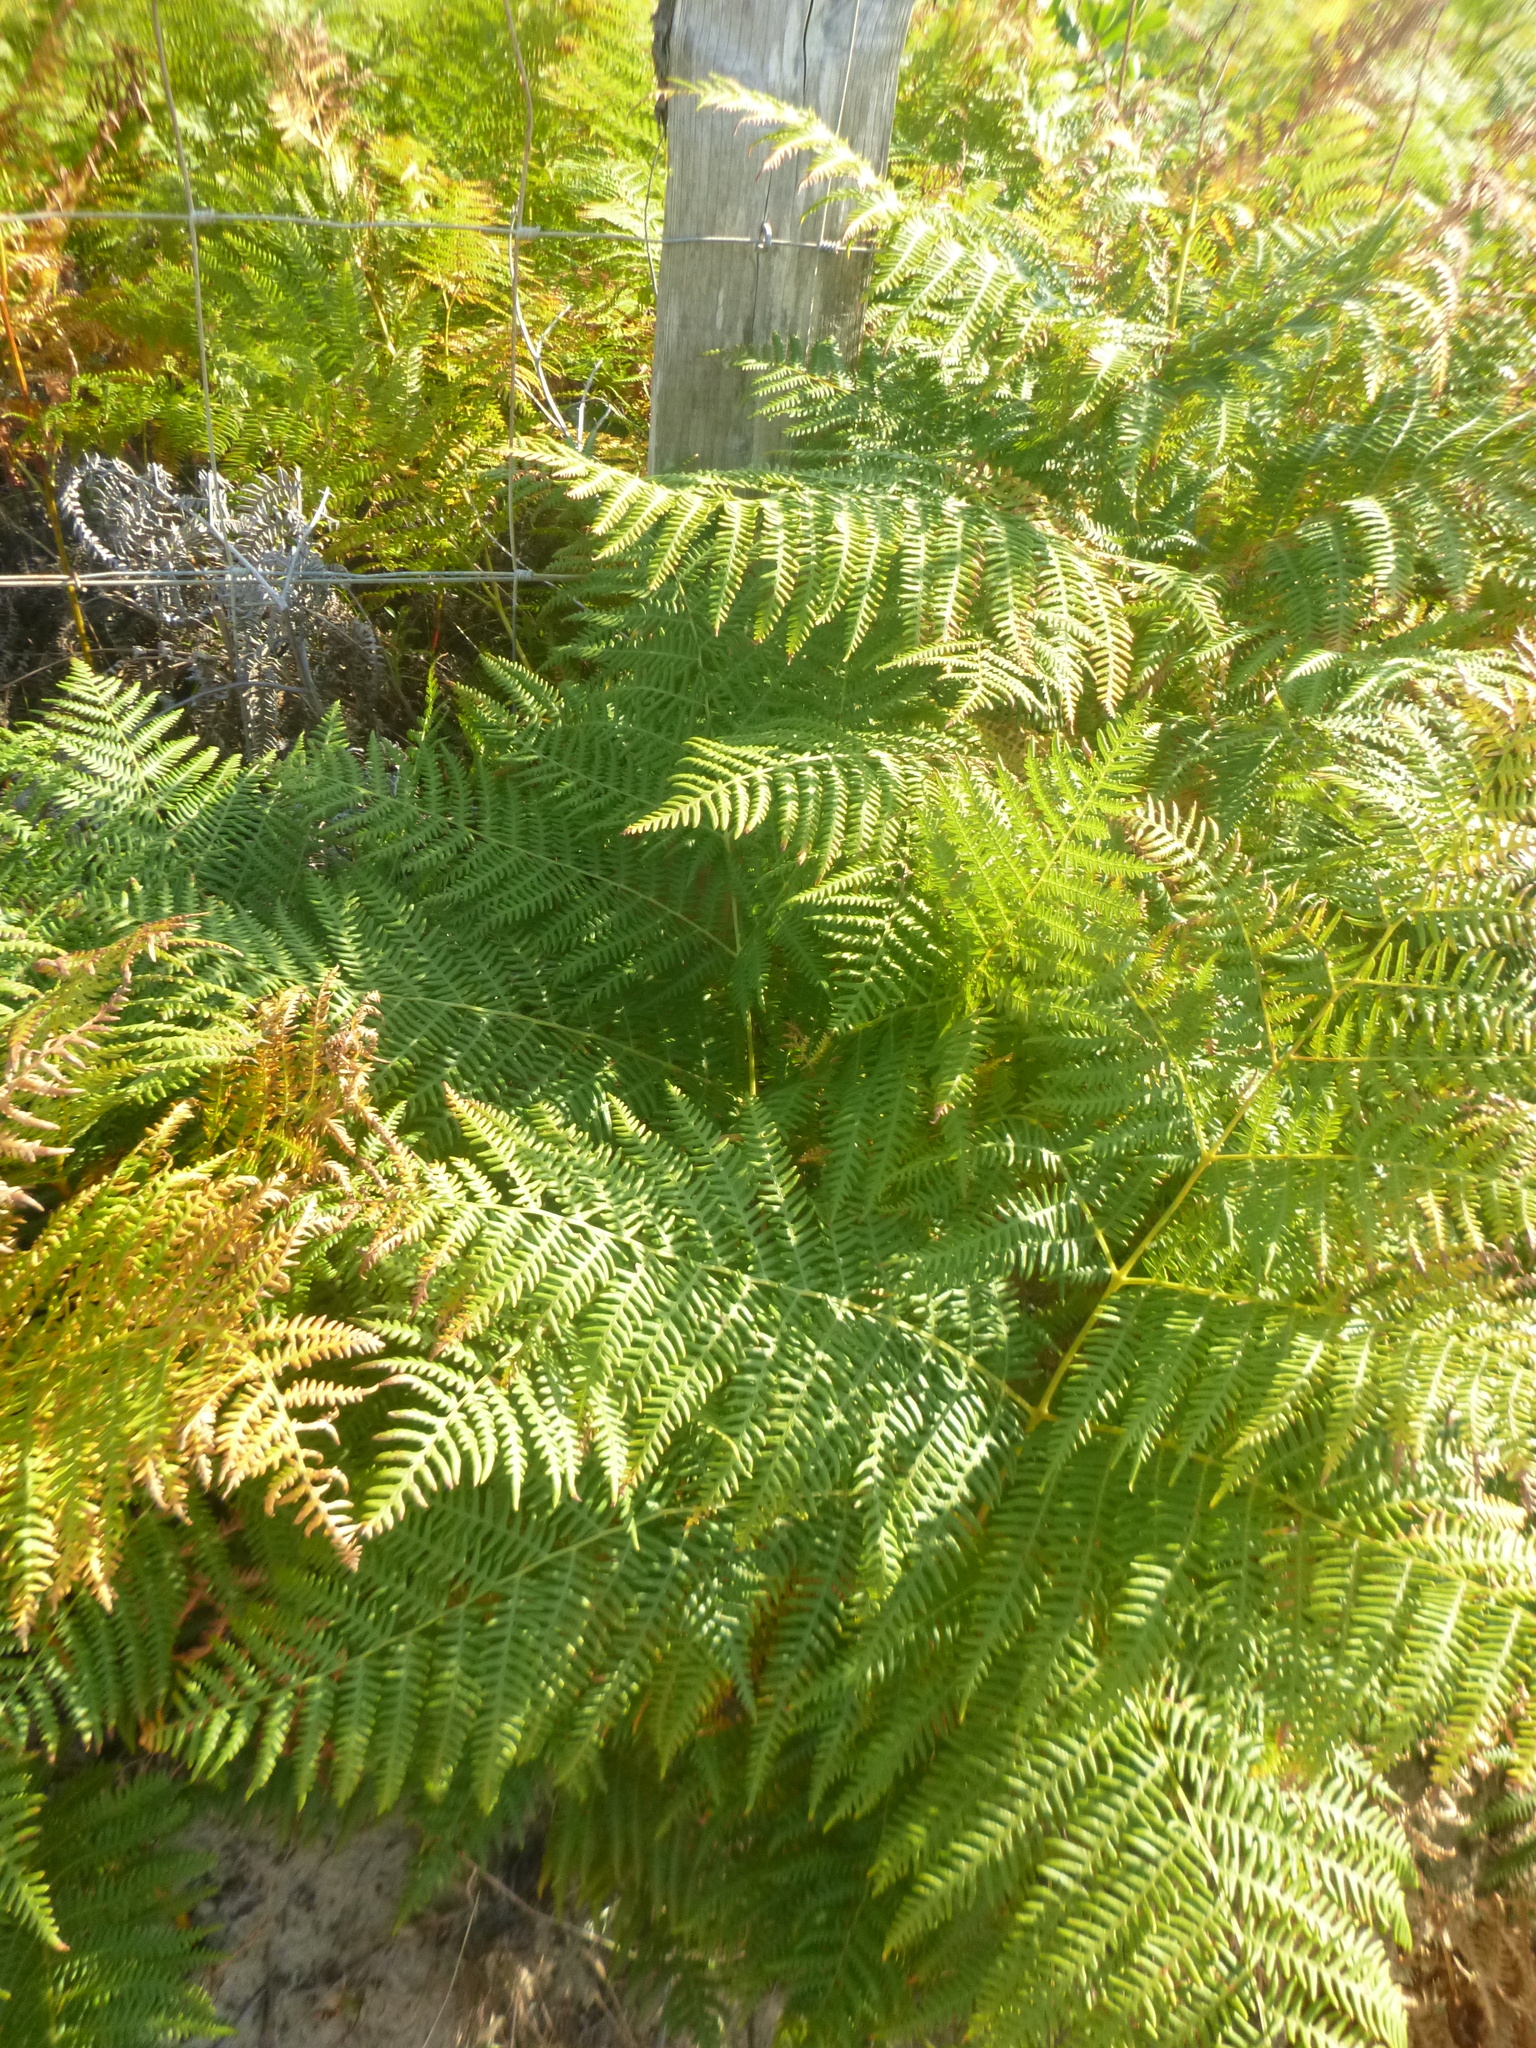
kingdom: Plantae
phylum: Tracheophyta
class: Polypodiopsida
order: Polypodiales
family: Dennstaedtiaceae
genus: Pteridium
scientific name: Pteridium aquilinum
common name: Bracken
